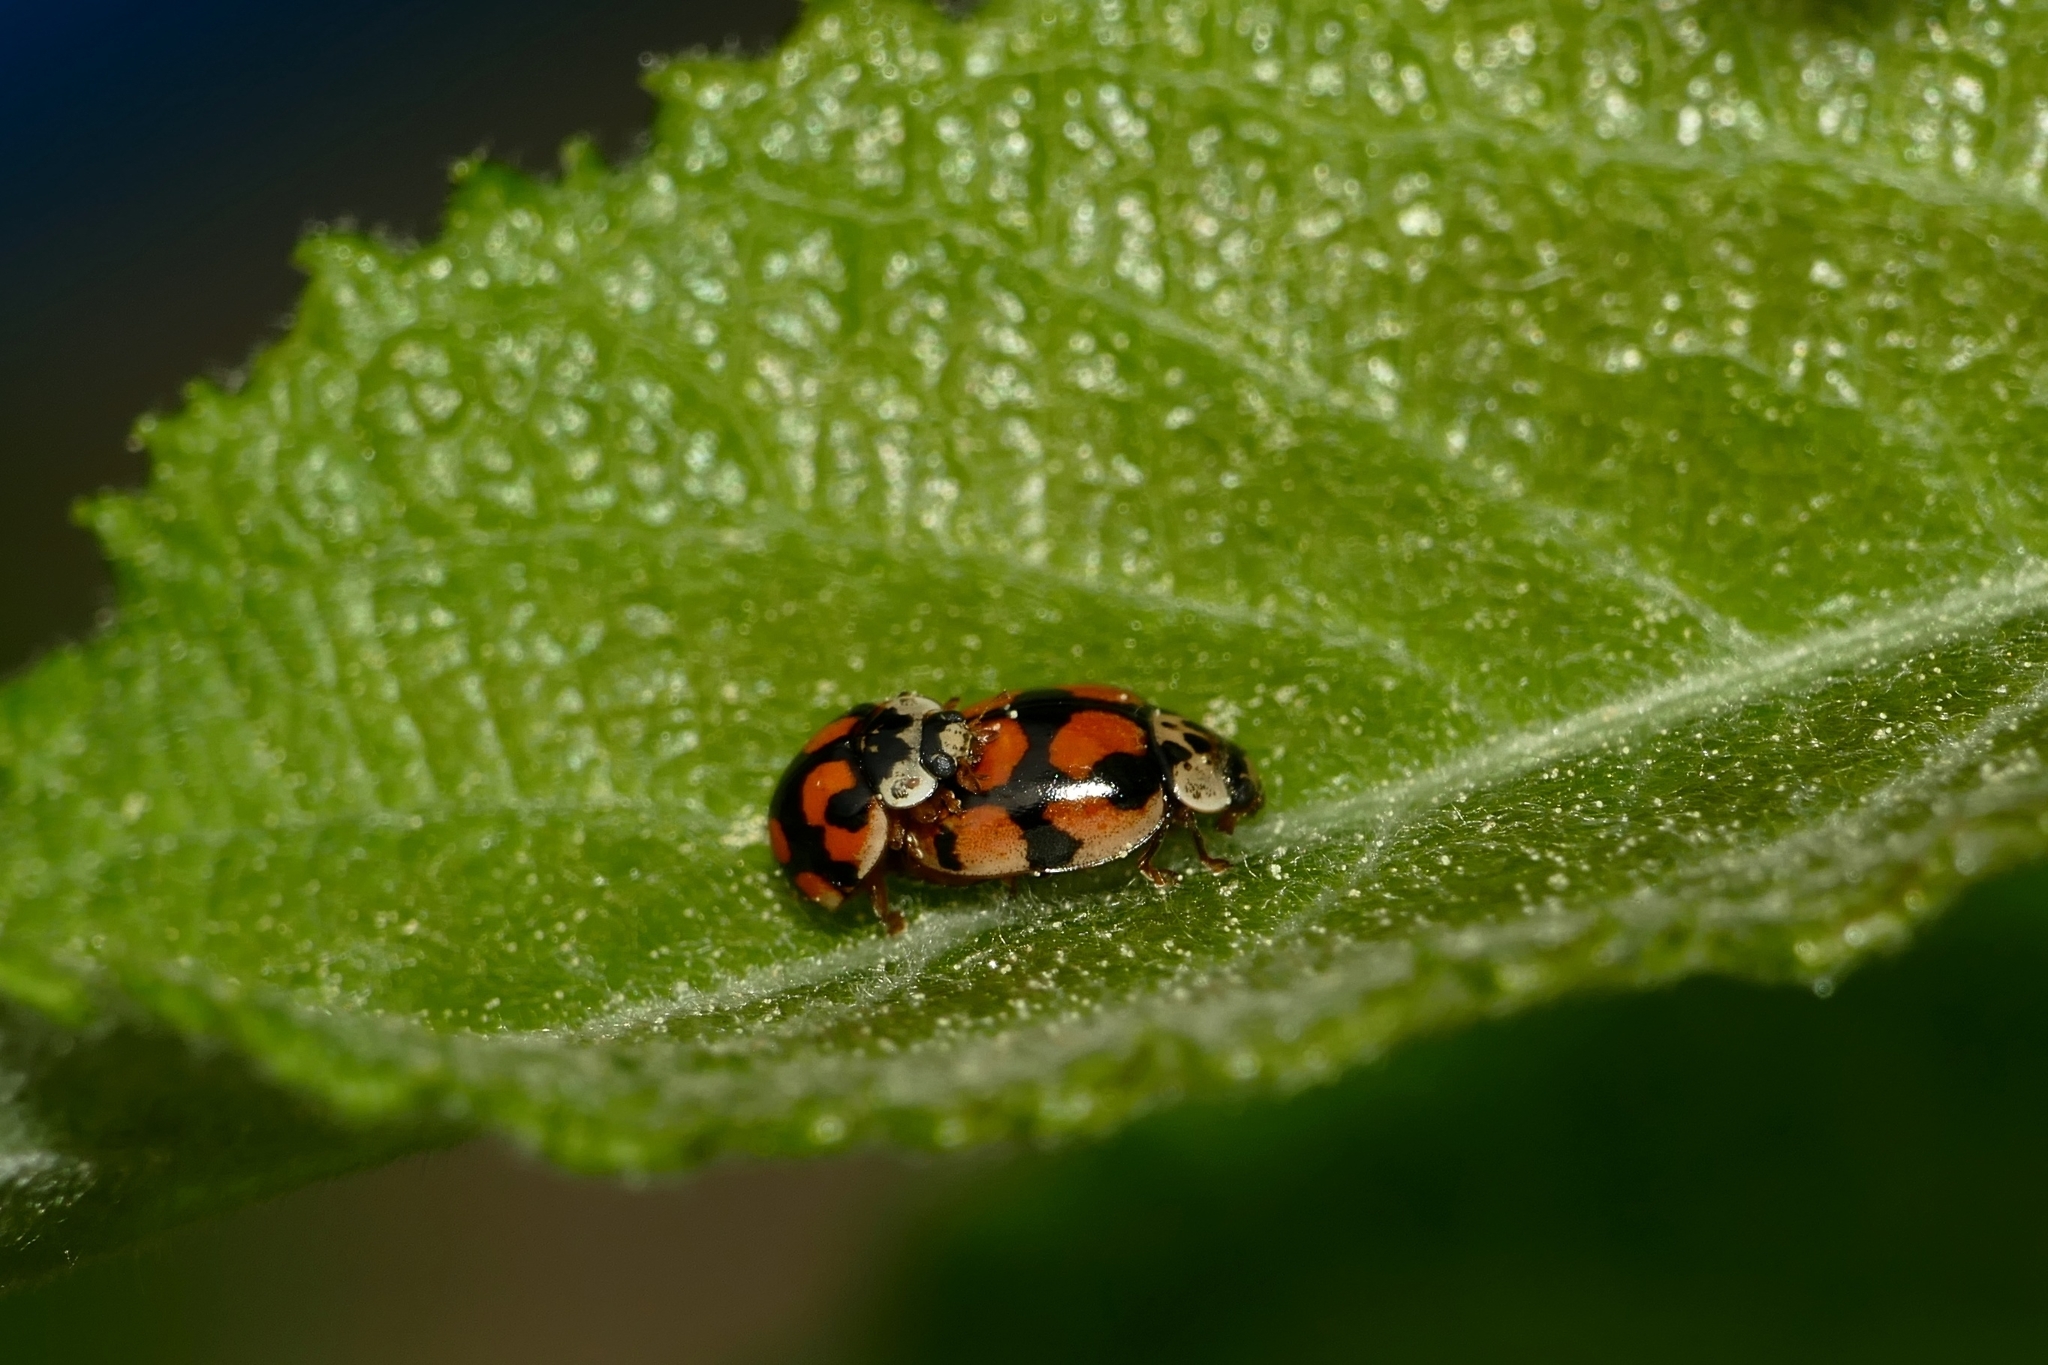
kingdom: Animalia
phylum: Arthropoda
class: Insecta
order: Coleoptera
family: Coccinellidae
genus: Adalia
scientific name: Adalia decempunctata
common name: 10-spot ladybird
